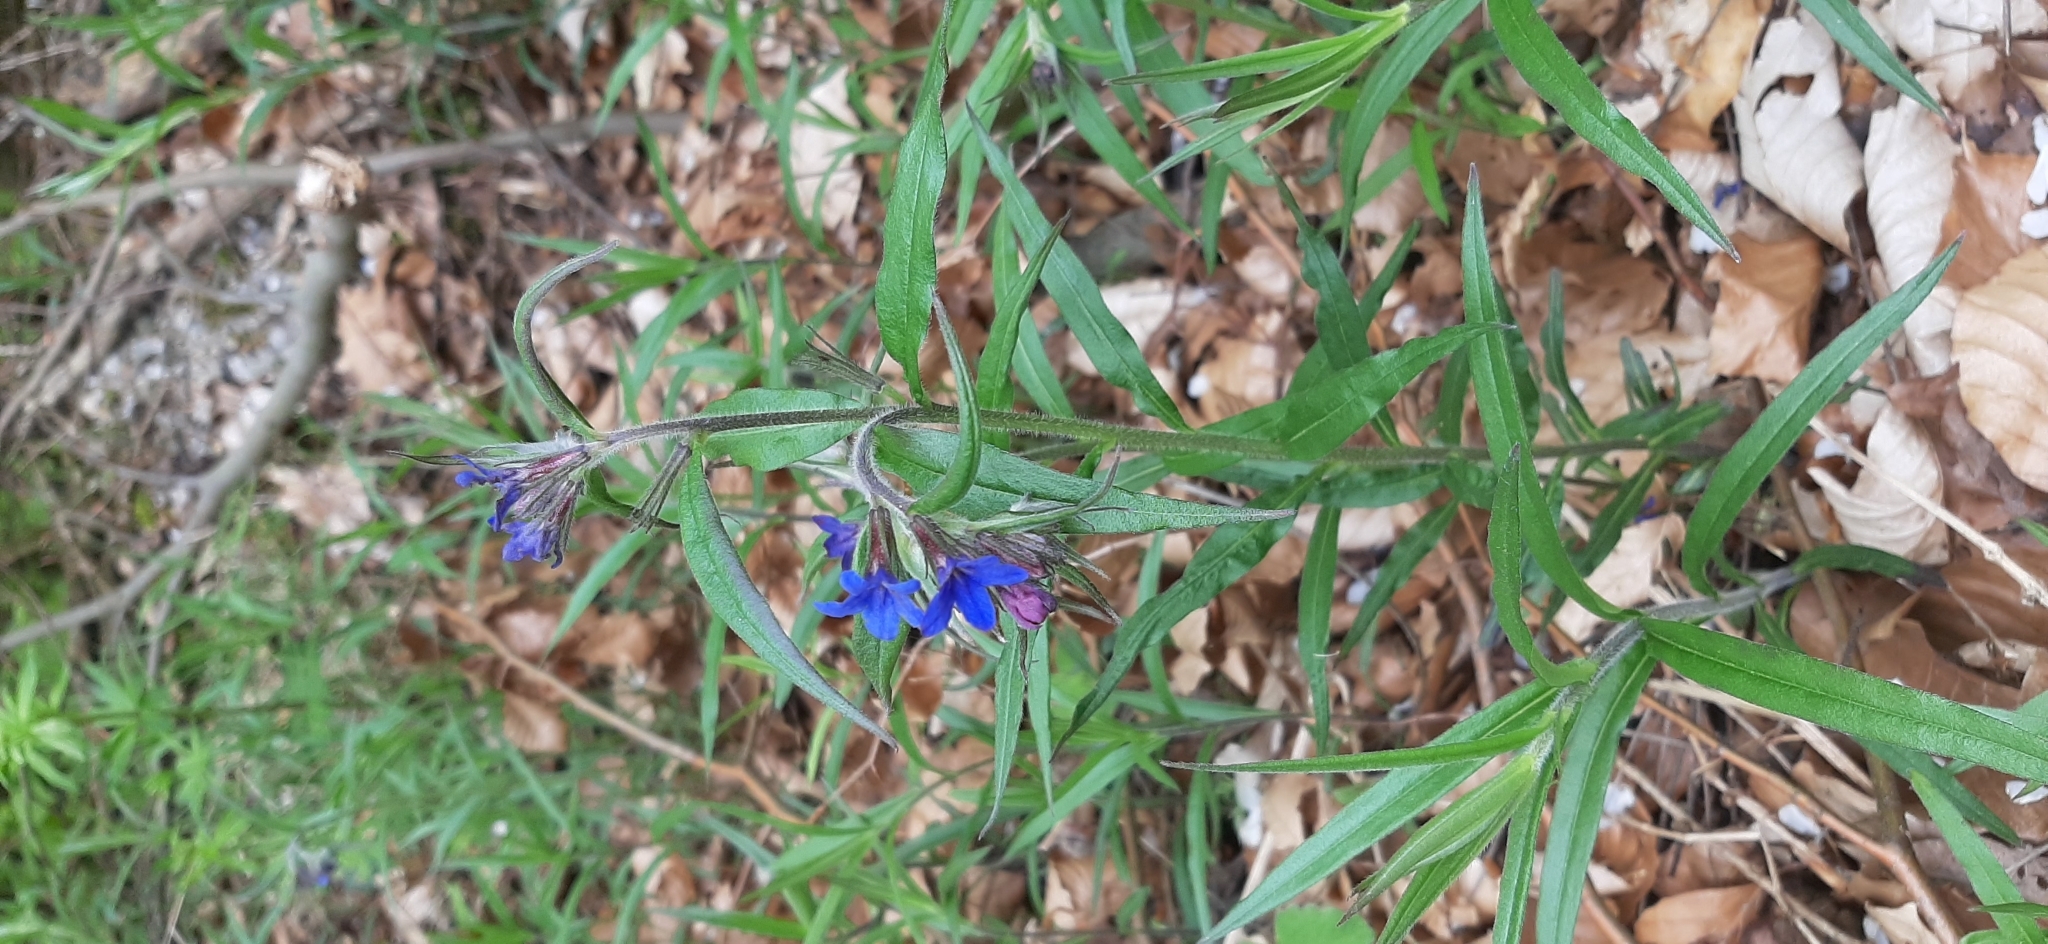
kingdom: Plantae
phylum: Tracheophyta
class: Magnoliopsida
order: Boraginales
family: Boraginaceae
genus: Aegonychon
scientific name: Aegonychon purpurocaeruleum
